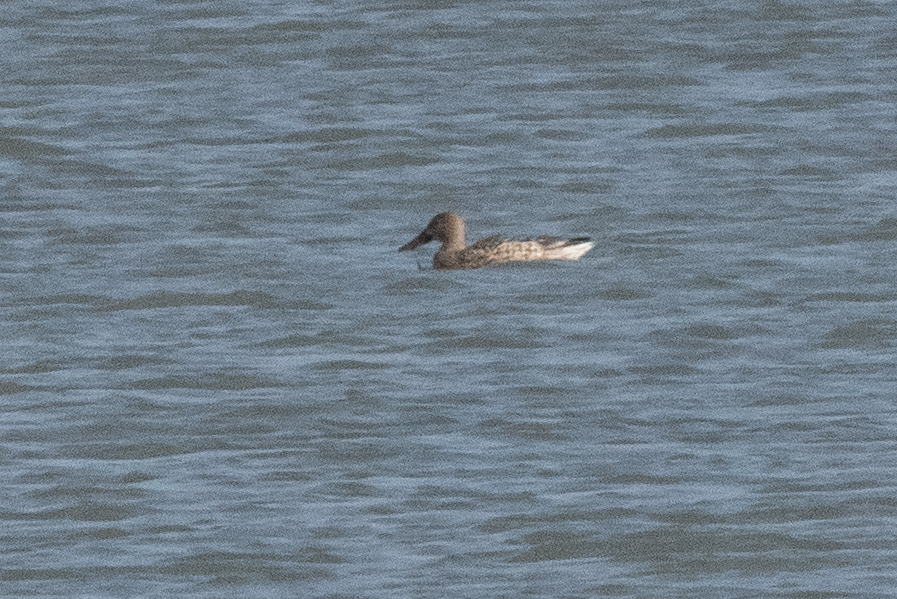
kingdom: Animalia
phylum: Chordata
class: Aves
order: Anseriformes
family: Anatidae
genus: Spatula
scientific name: Spatula clypeata
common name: Northern shoveler
